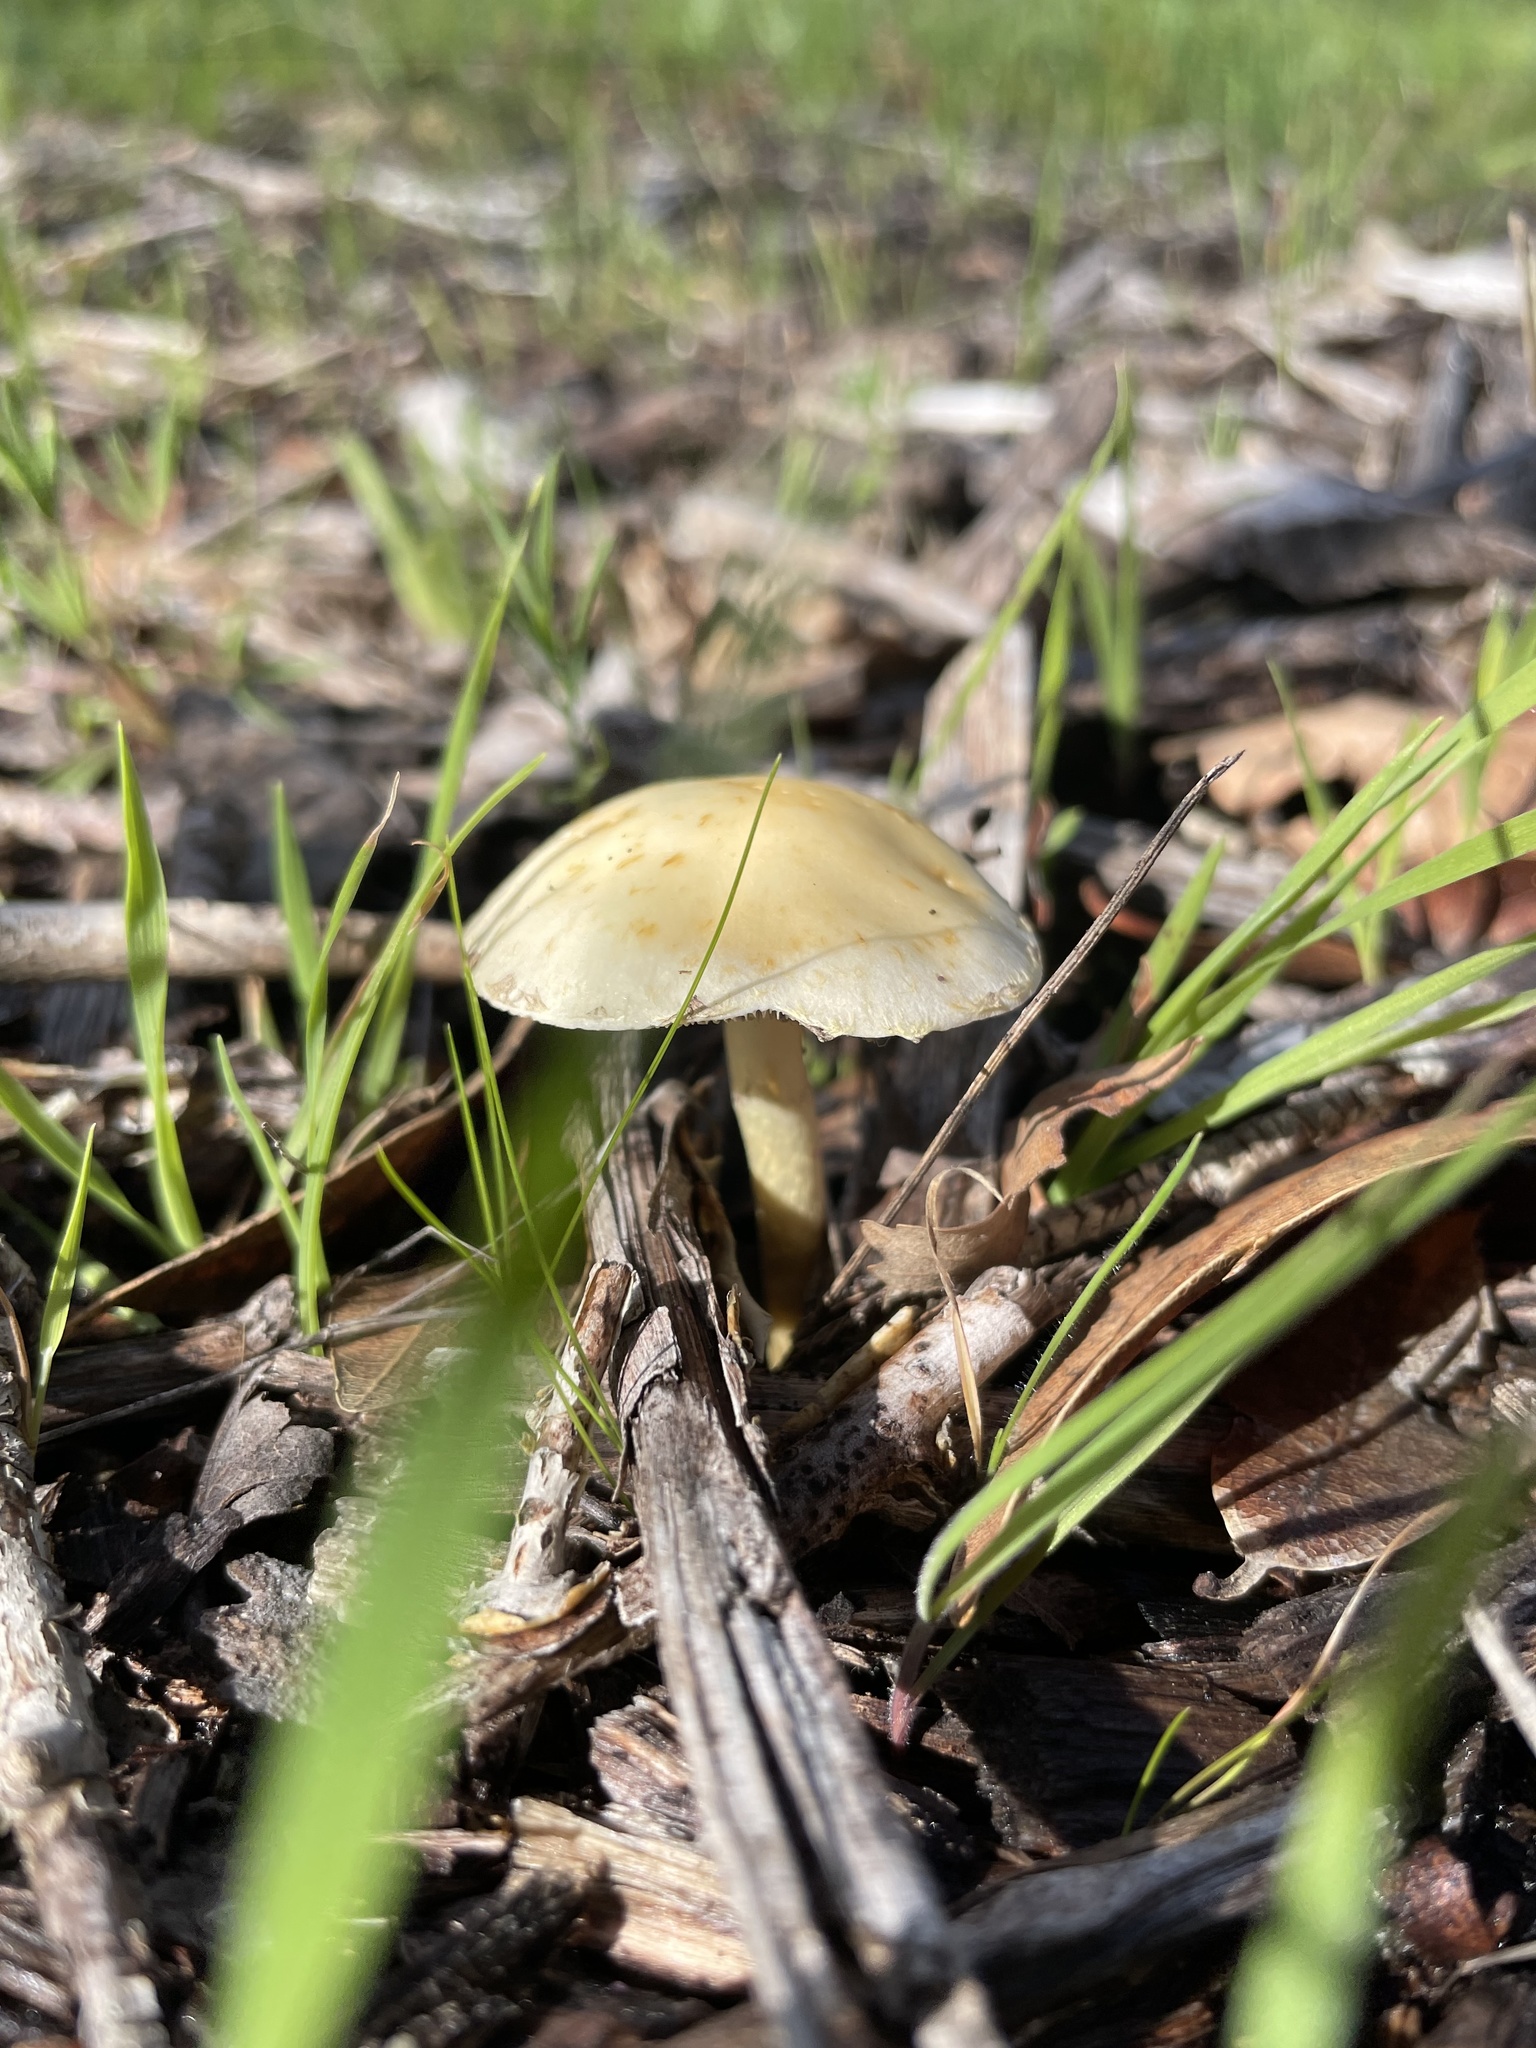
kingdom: Fungi
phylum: Basidiomycota
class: Agaricomycetes
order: Agaricales
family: Strophariaceae
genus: Leratiomyces
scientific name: Leratiomyces percevalii
